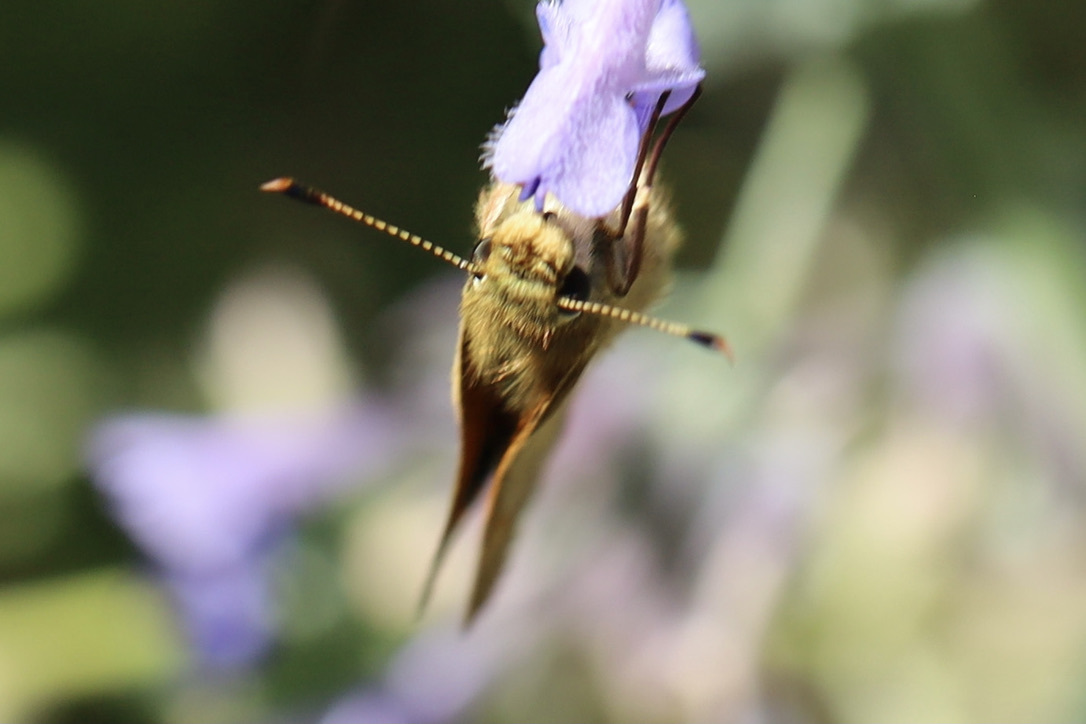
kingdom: Animalia
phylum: Arthropoda
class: Insecta
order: Lepidoptera
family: Hesperiidae
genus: Ochlodes
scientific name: Ochlodes sylvanoides
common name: Woodland skipper
